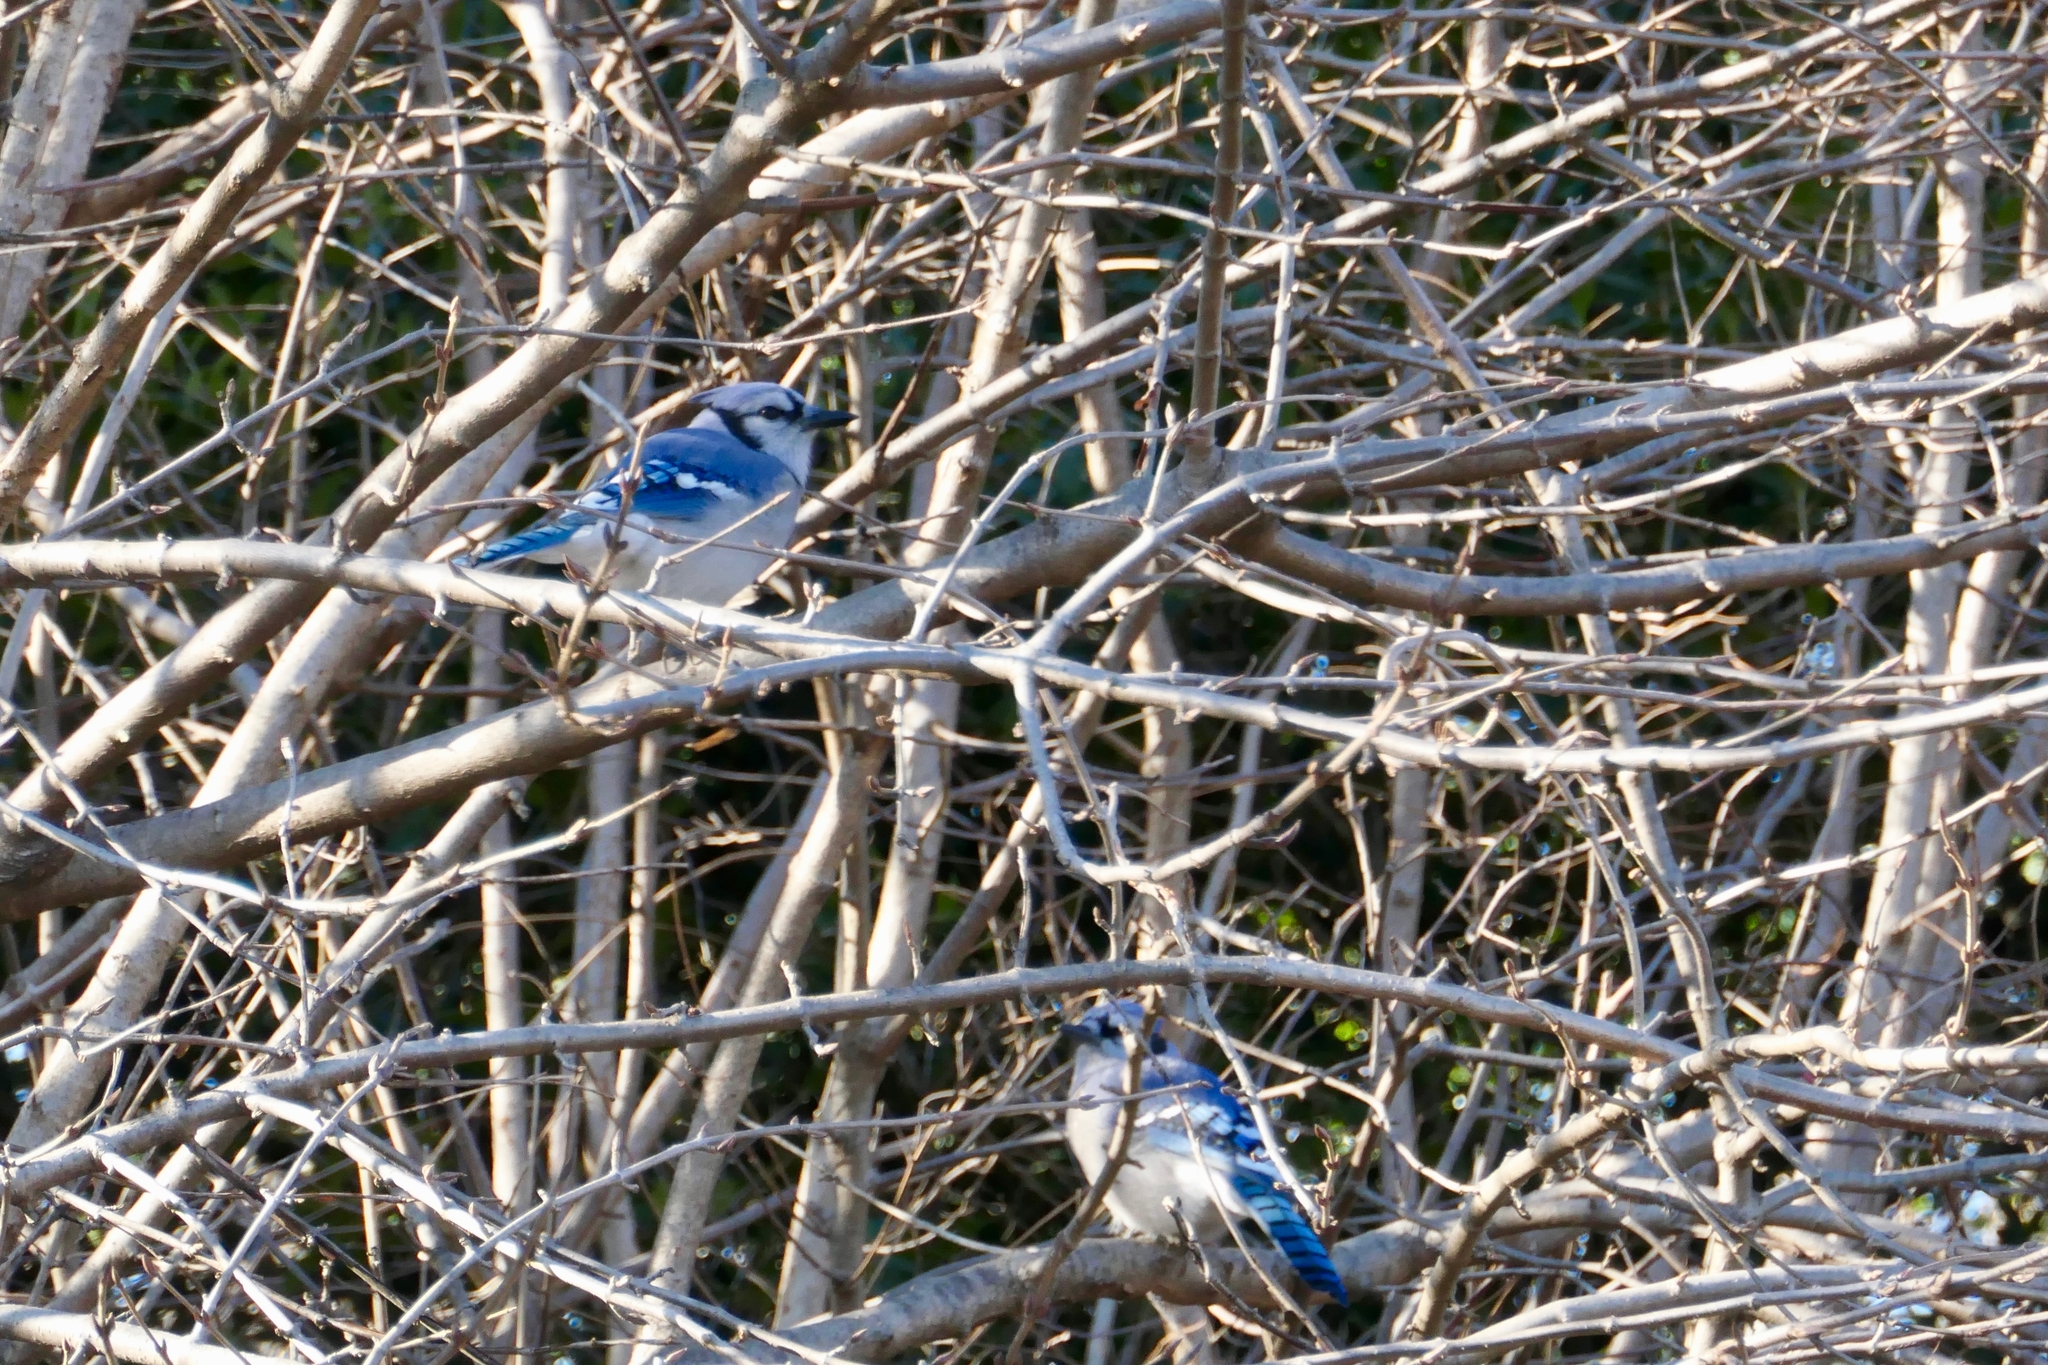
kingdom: Animalia
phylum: Chordata
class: Aves
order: Passeriformes
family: Corvidae
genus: Cyanocitta
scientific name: Cyanocitta cristata
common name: Blue jay
